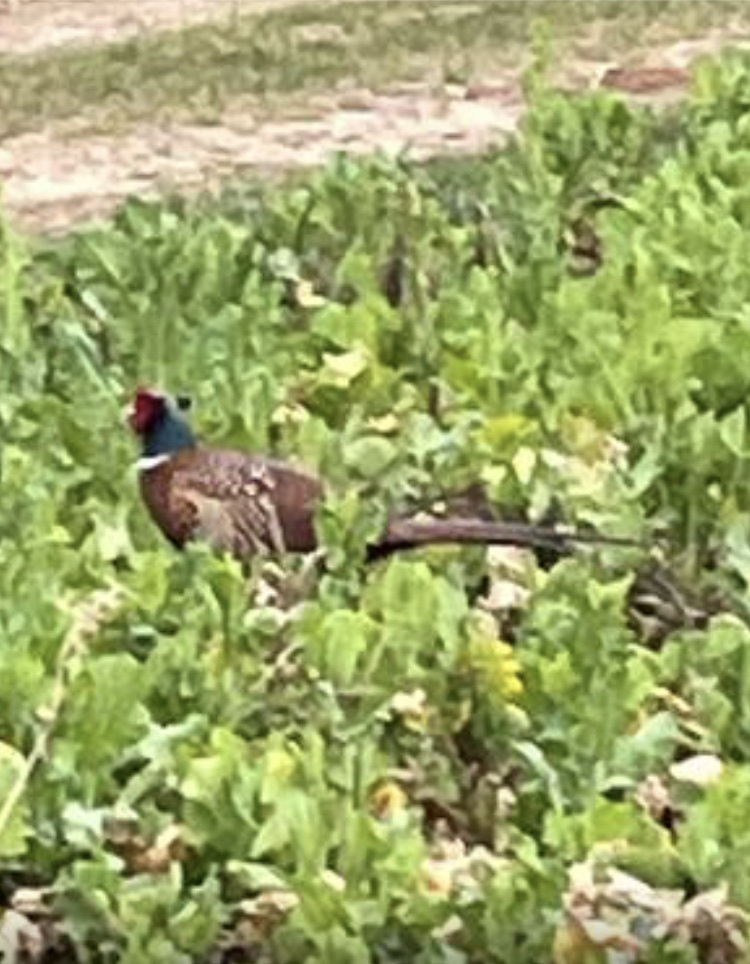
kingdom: Animalia
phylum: Chordata
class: Aves
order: Galliformes
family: Phasianidae
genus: Phasianus
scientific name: Phasianus colchicus
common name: Common pheasant
